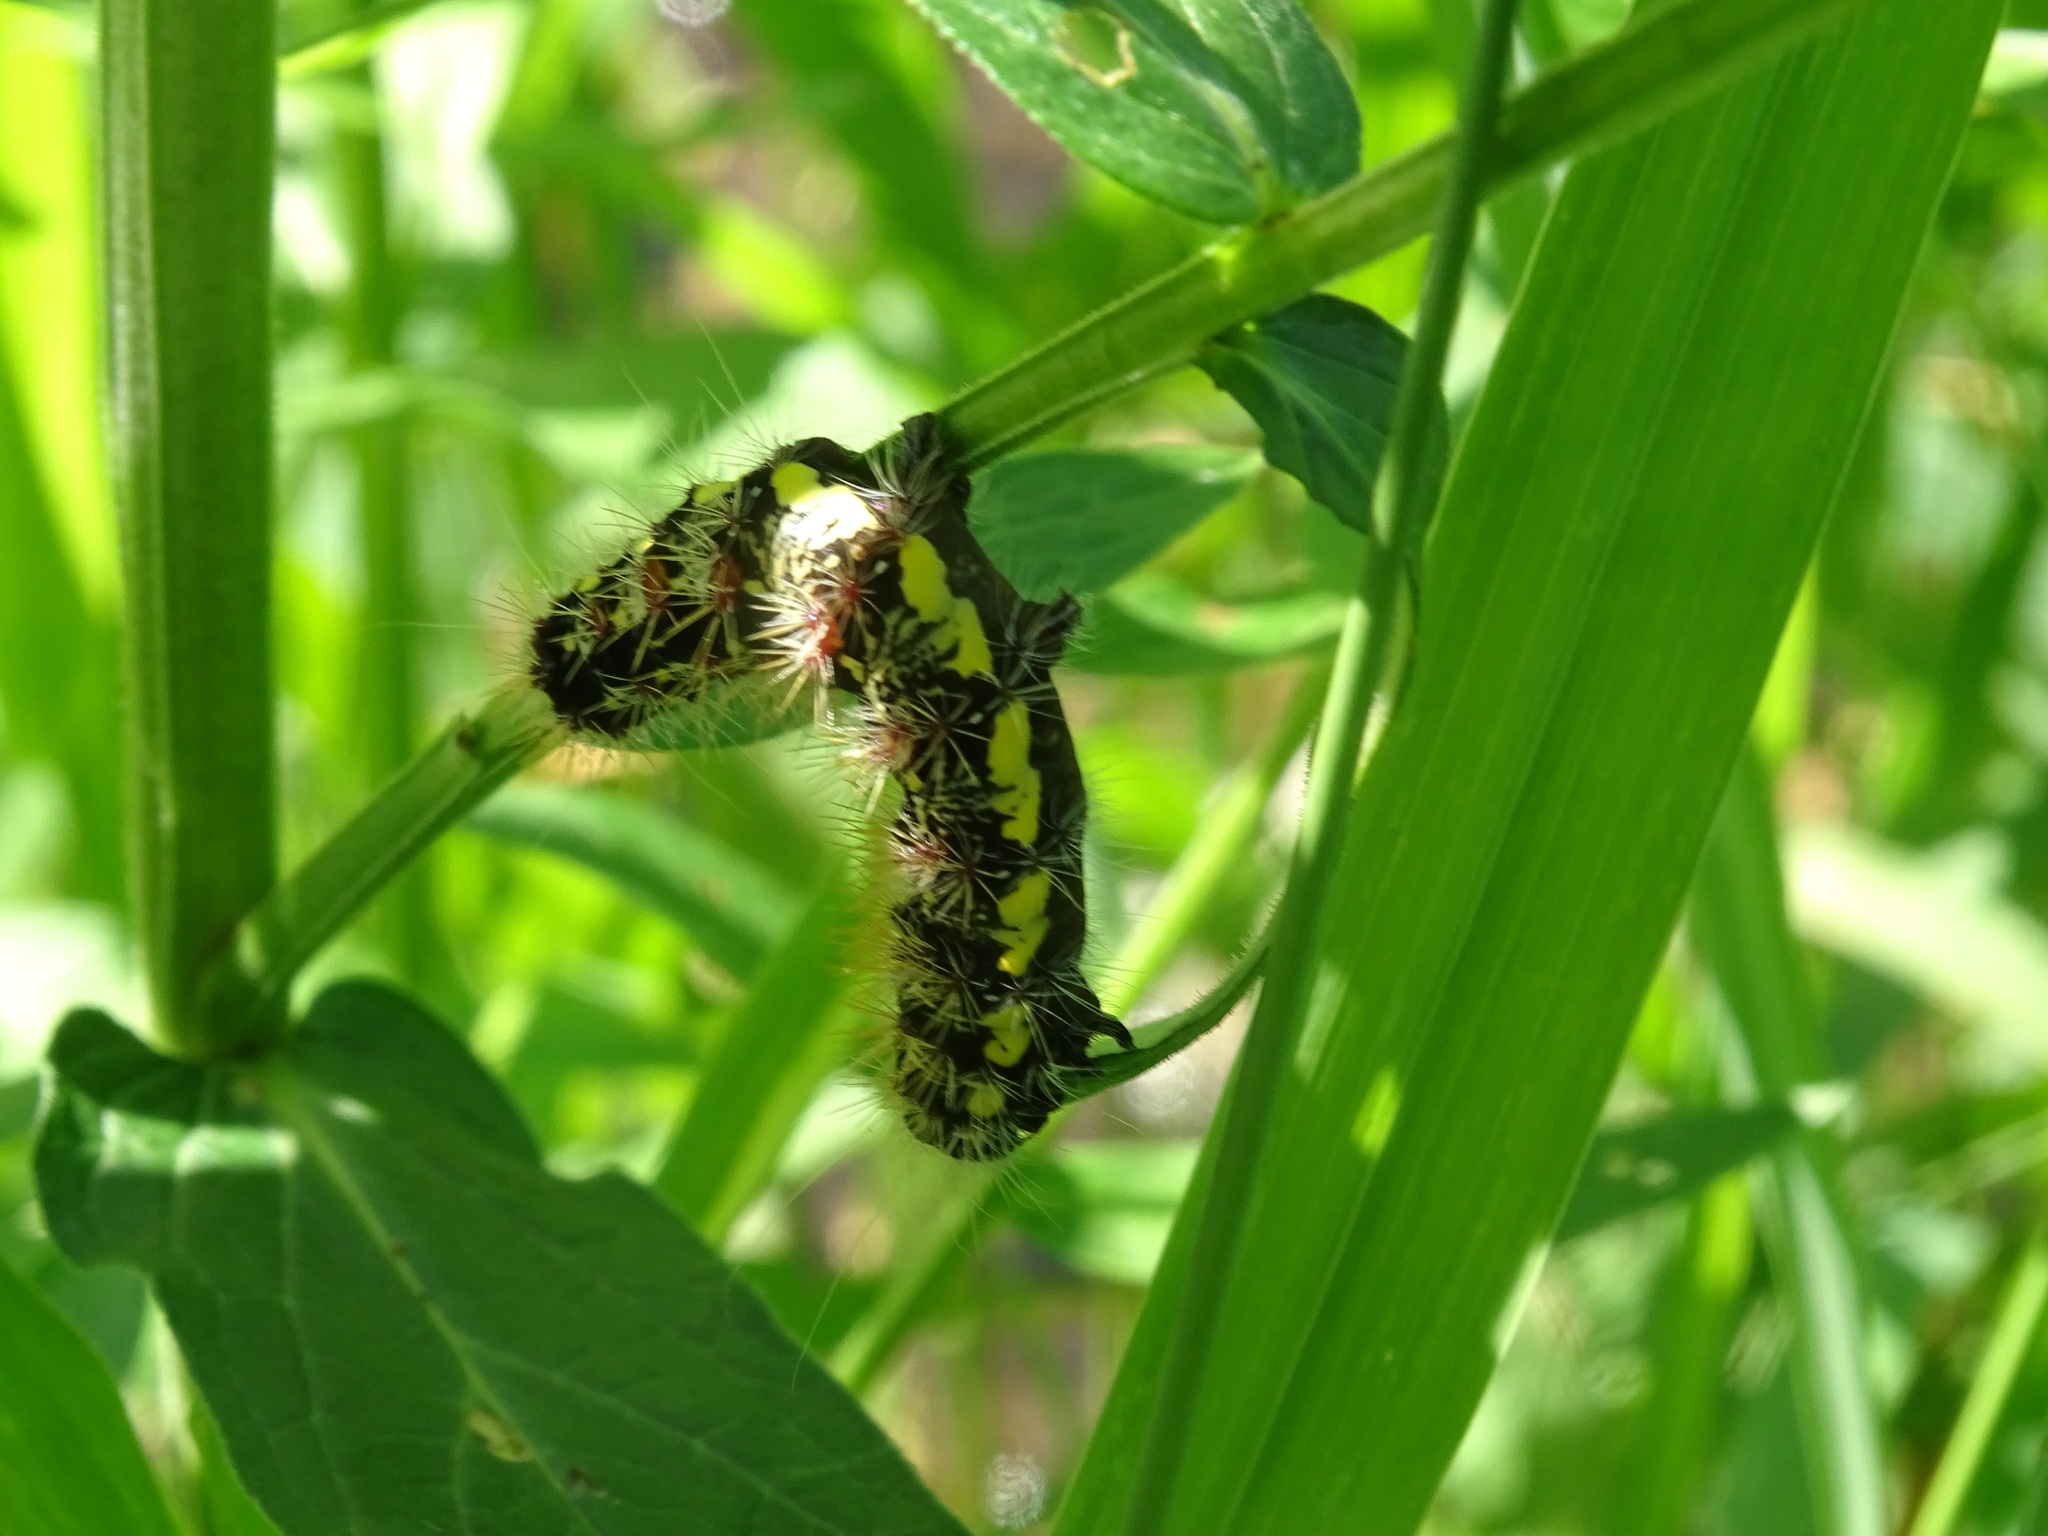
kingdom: Animalia
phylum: Arthropoda
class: Insecta
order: Lepidoptera
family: Noctuidae
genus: Acronicta
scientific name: Acronicta oblinita
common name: Smeared dagger
